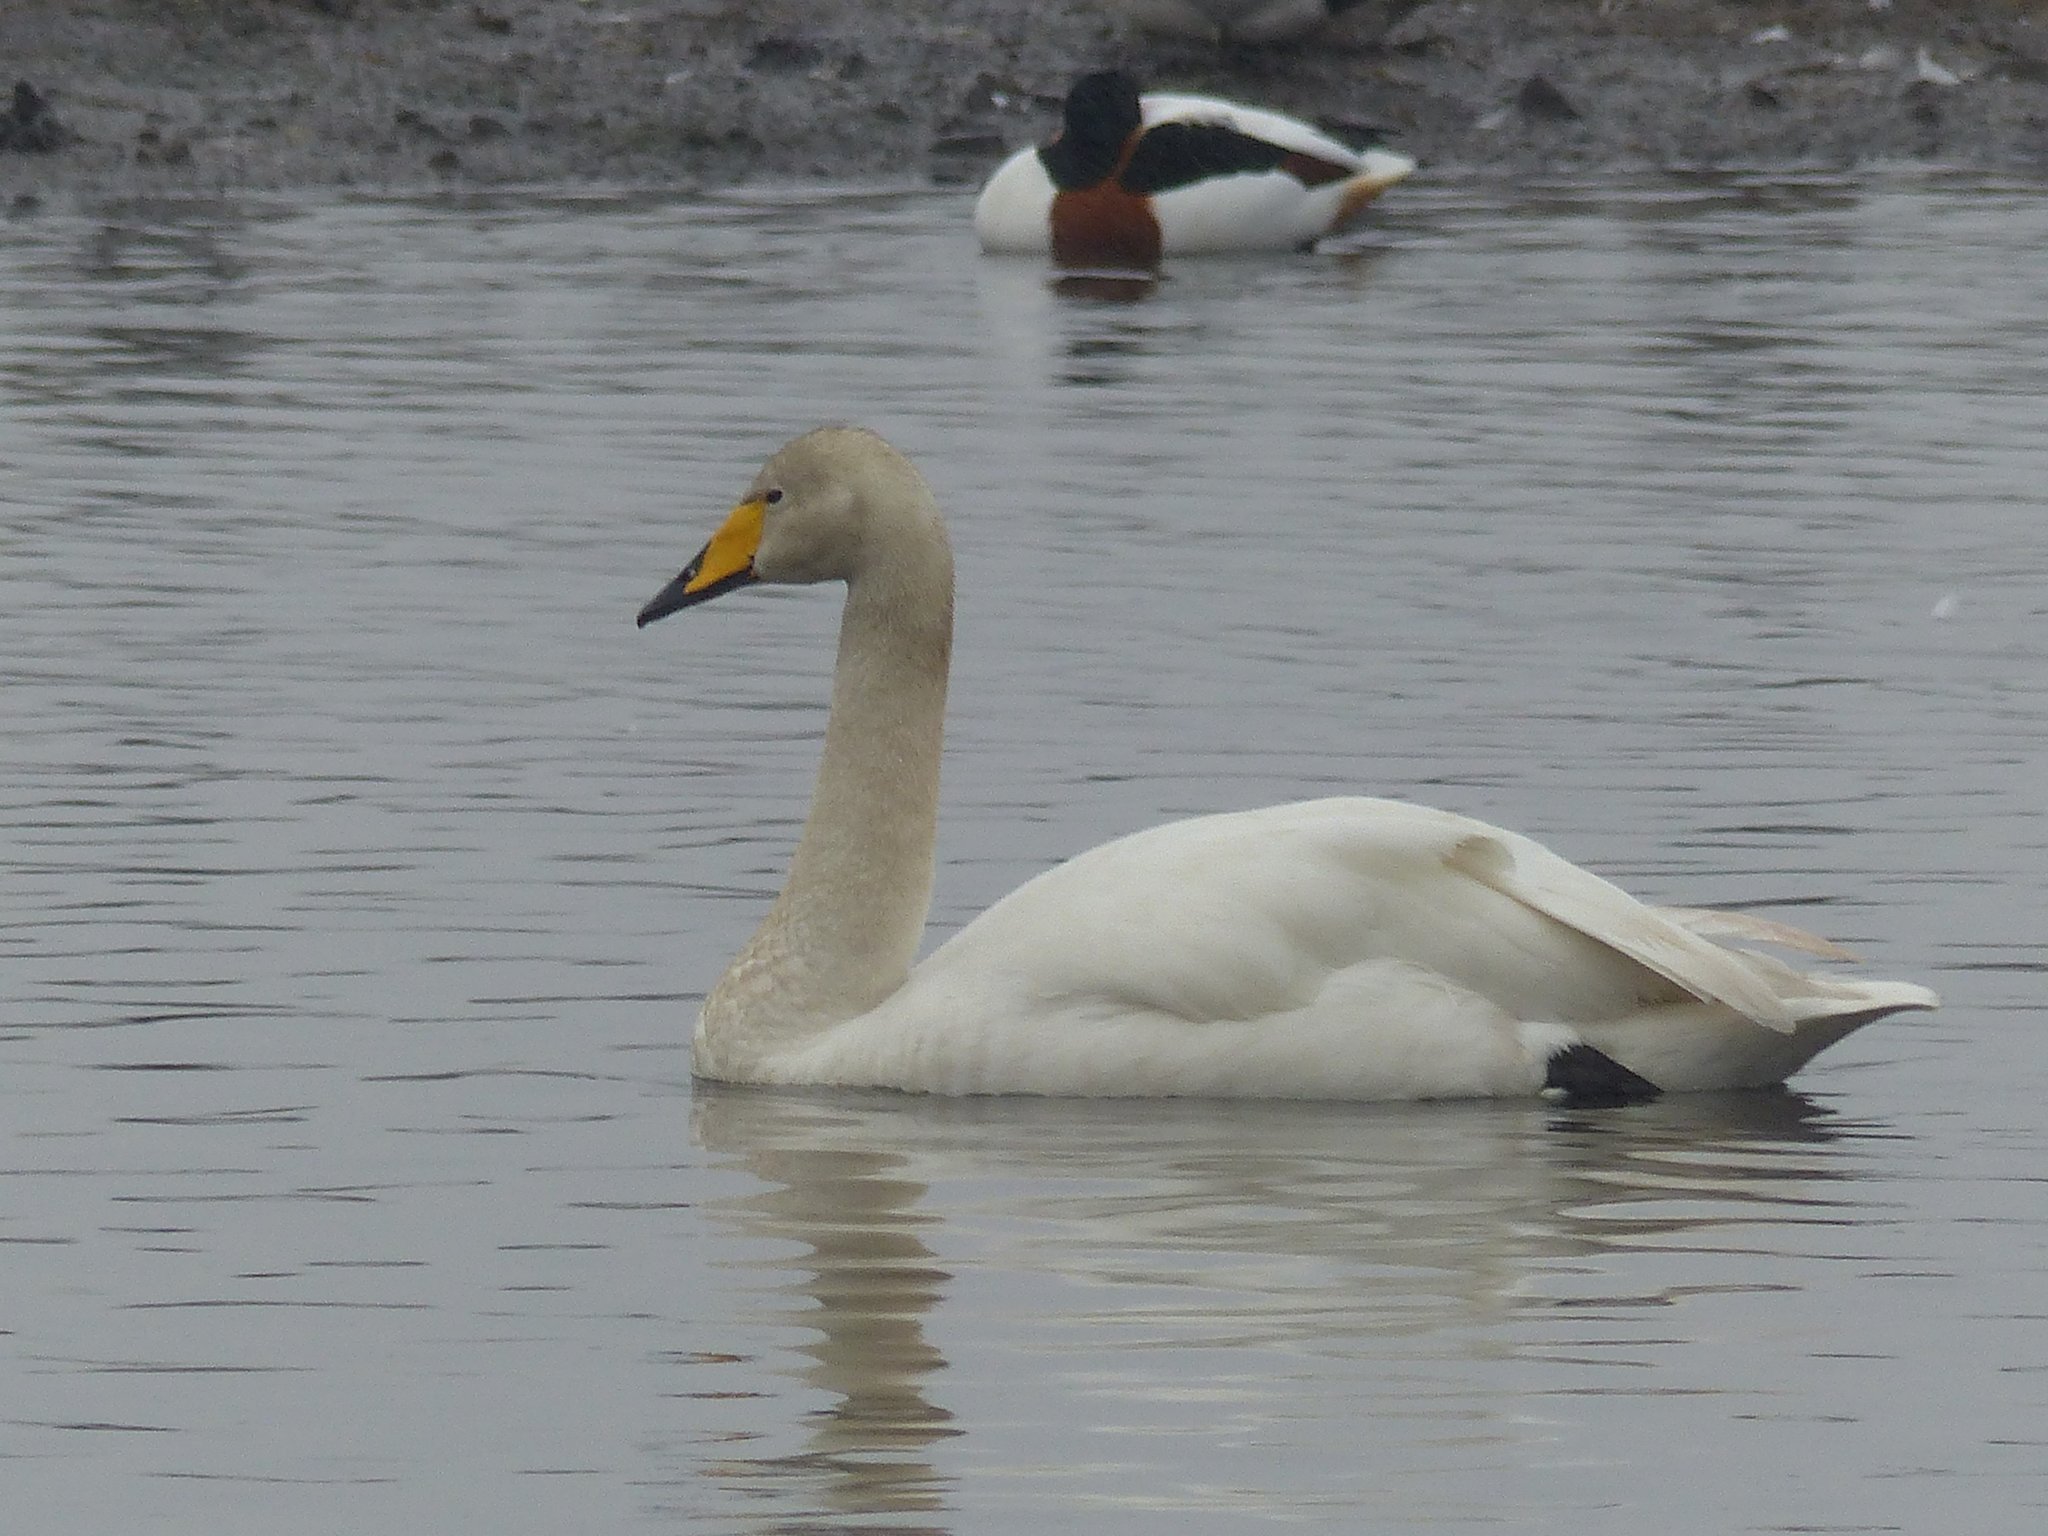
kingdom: Animalia
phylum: Chordata
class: Aves
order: Anseriformes
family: Anatidae
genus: Cygnus
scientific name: Cygnus cygnus
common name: Whooper swan
